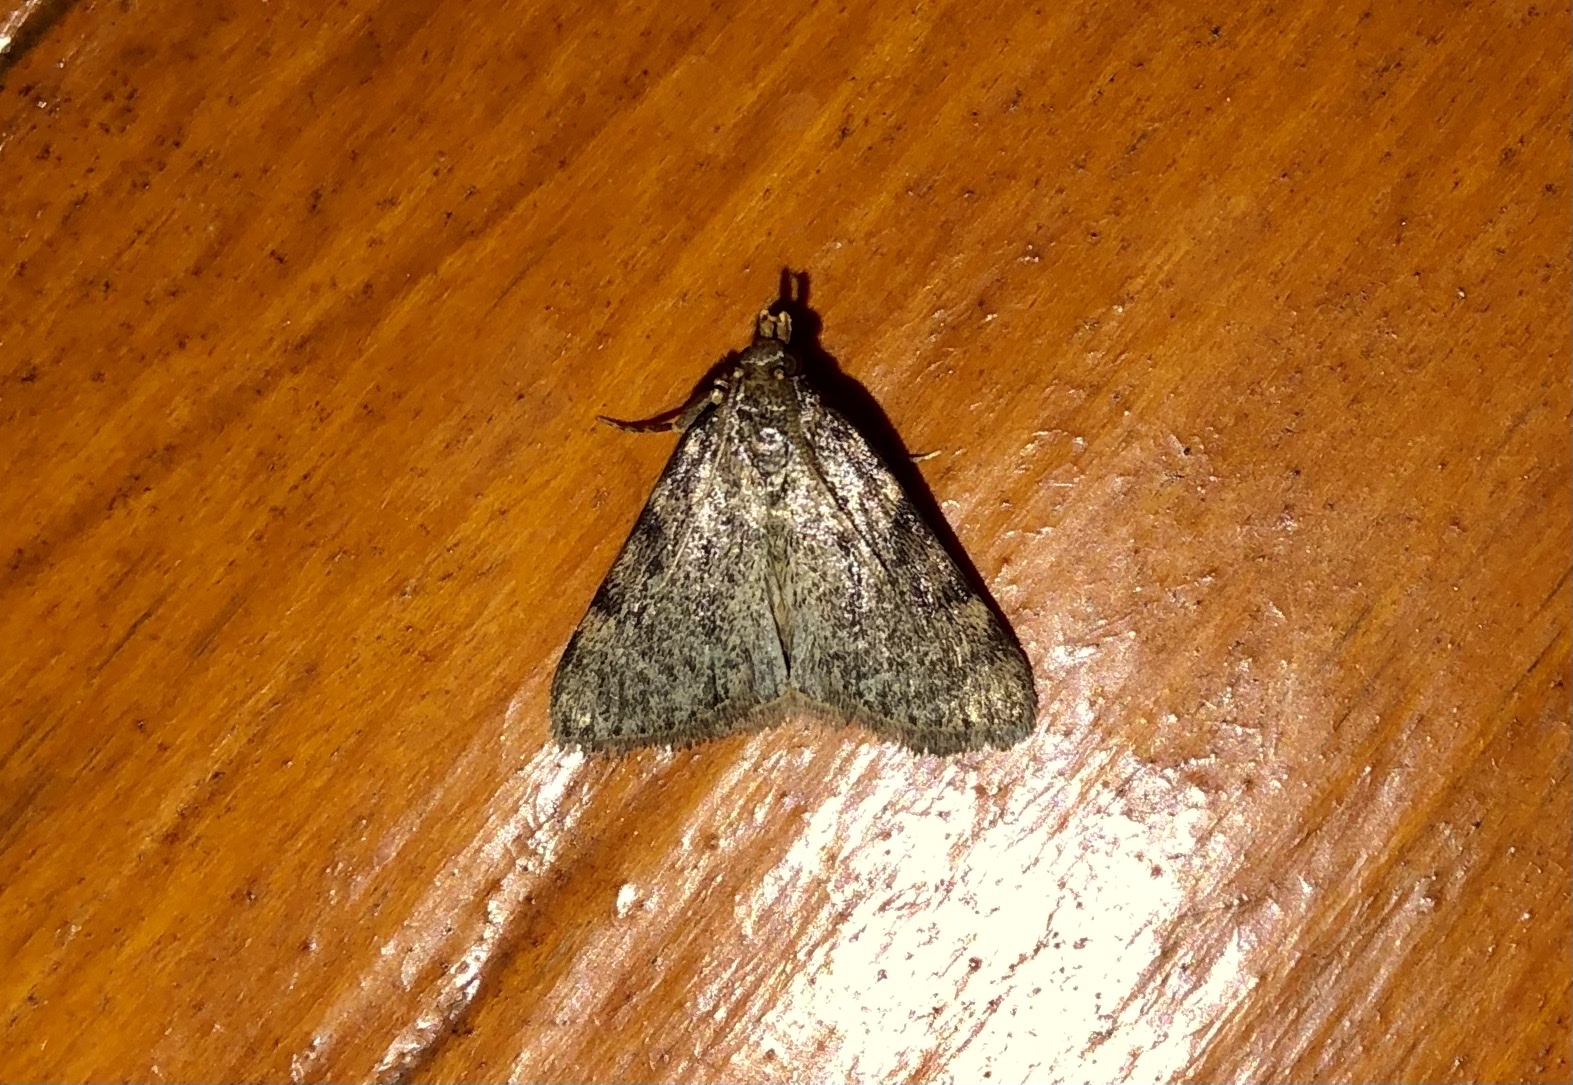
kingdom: Animalia
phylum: Arthropoda
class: Insecta
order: Lepidoptera
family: Pyralidae
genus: Aglossa
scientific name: Aglossa pinguinalis
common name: Large tabby
